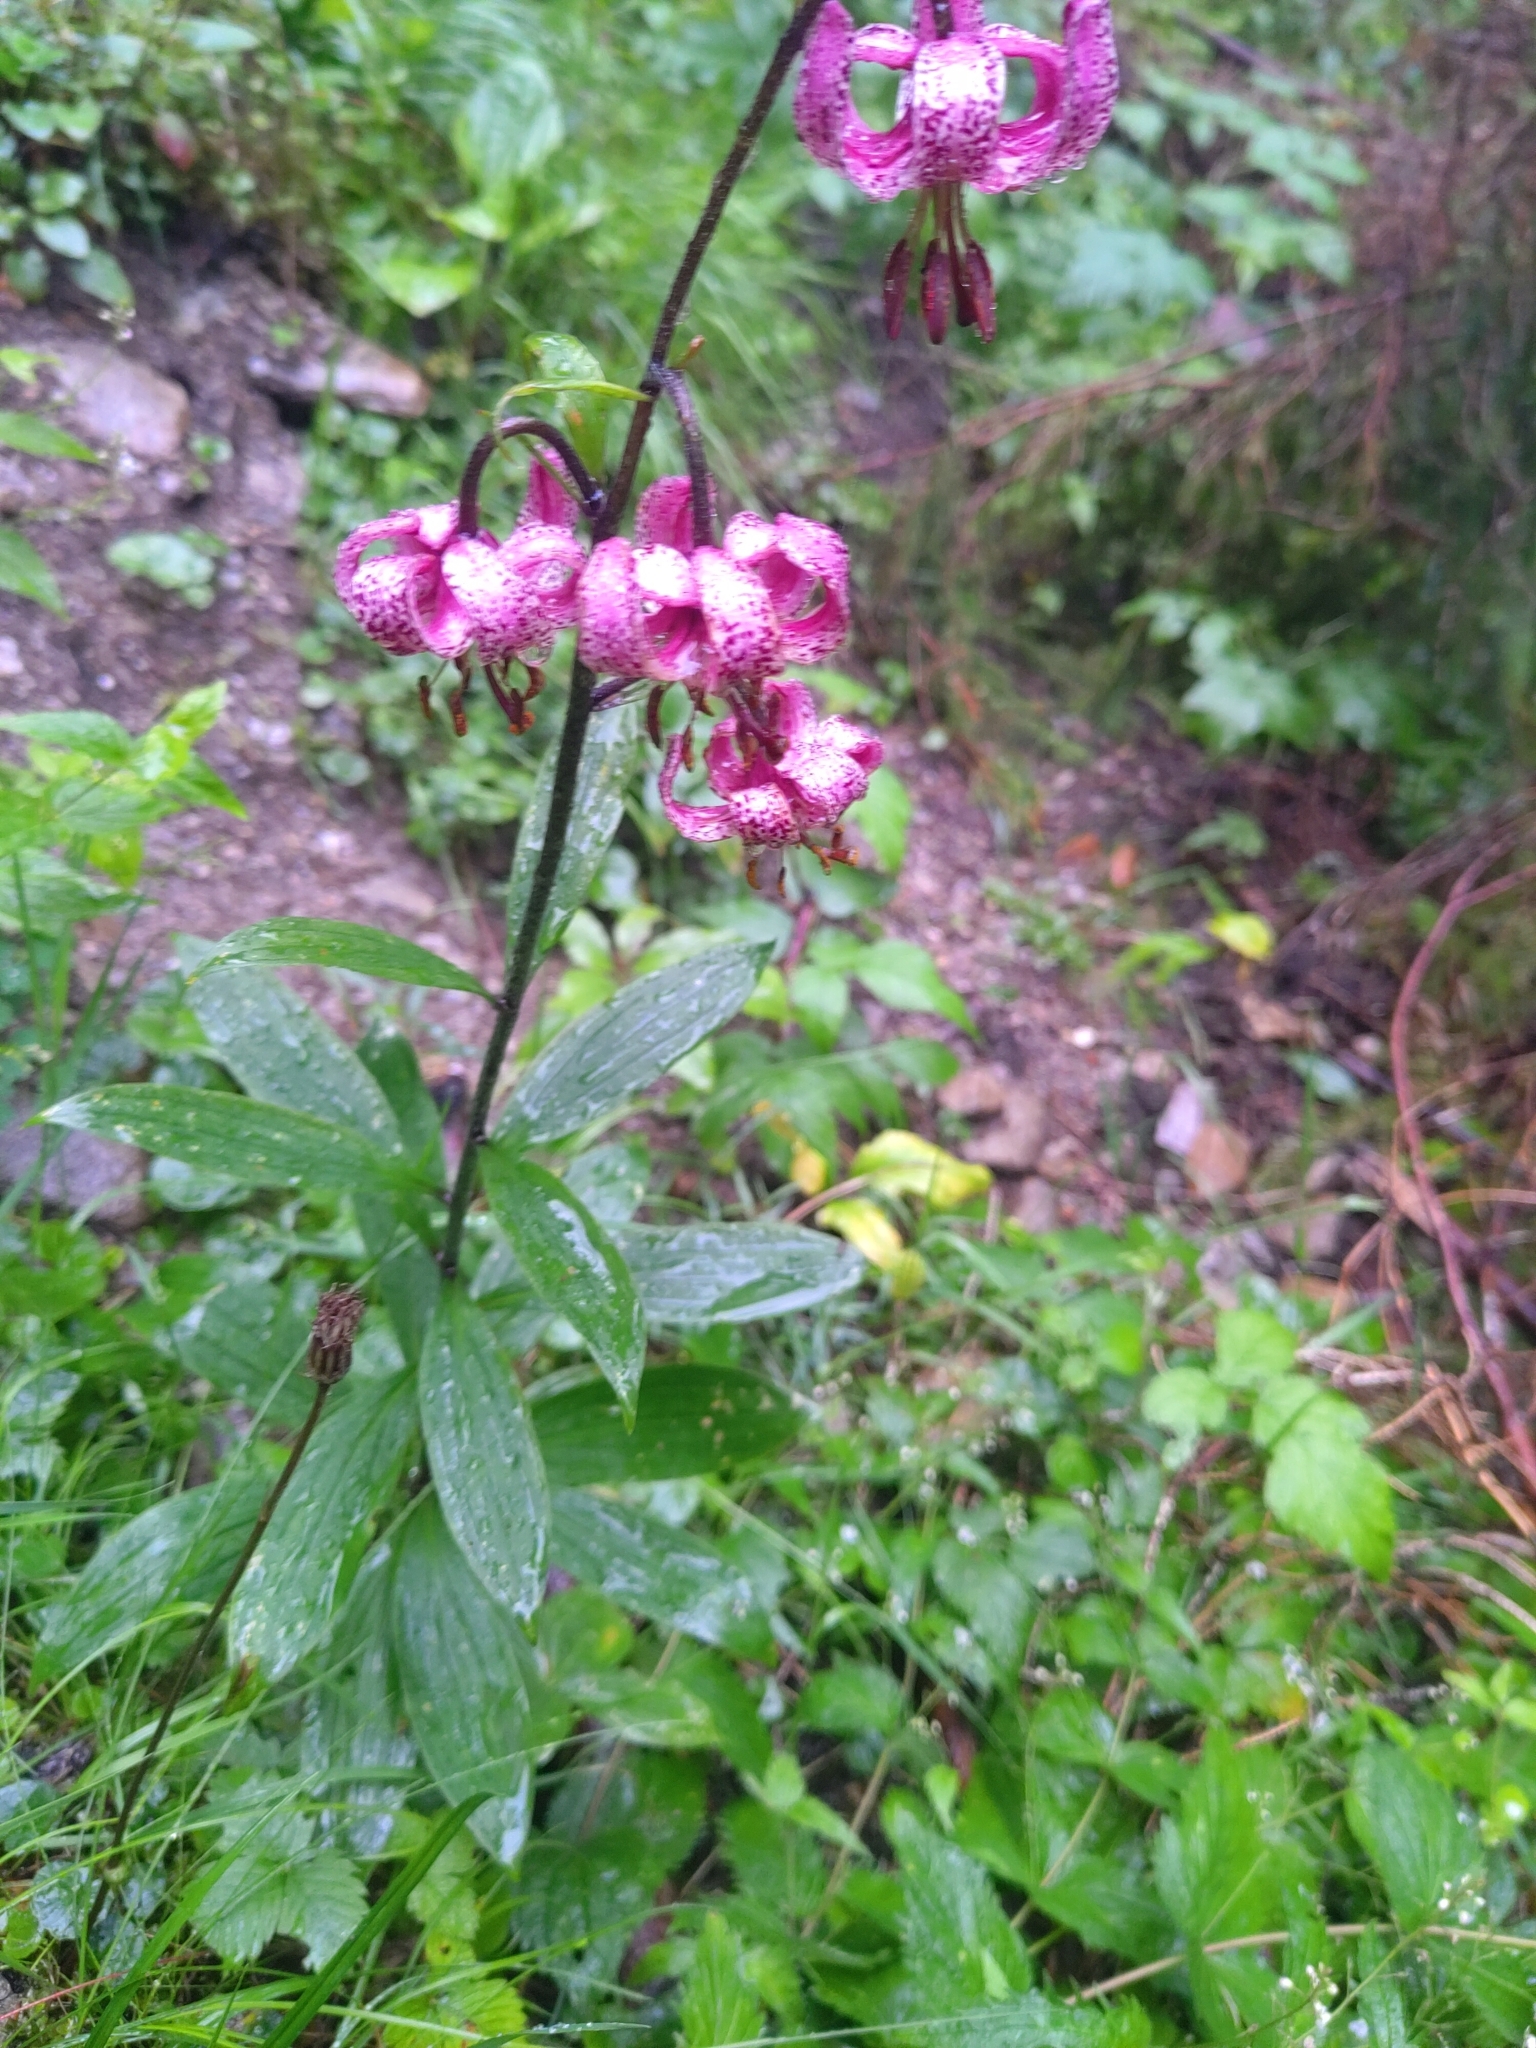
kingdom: Plantae
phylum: Tracheophyta
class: Liliopsida
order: Liliales
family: Liliaceae
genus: Lilium
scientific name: Lilium martagon
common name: Martagon lily
